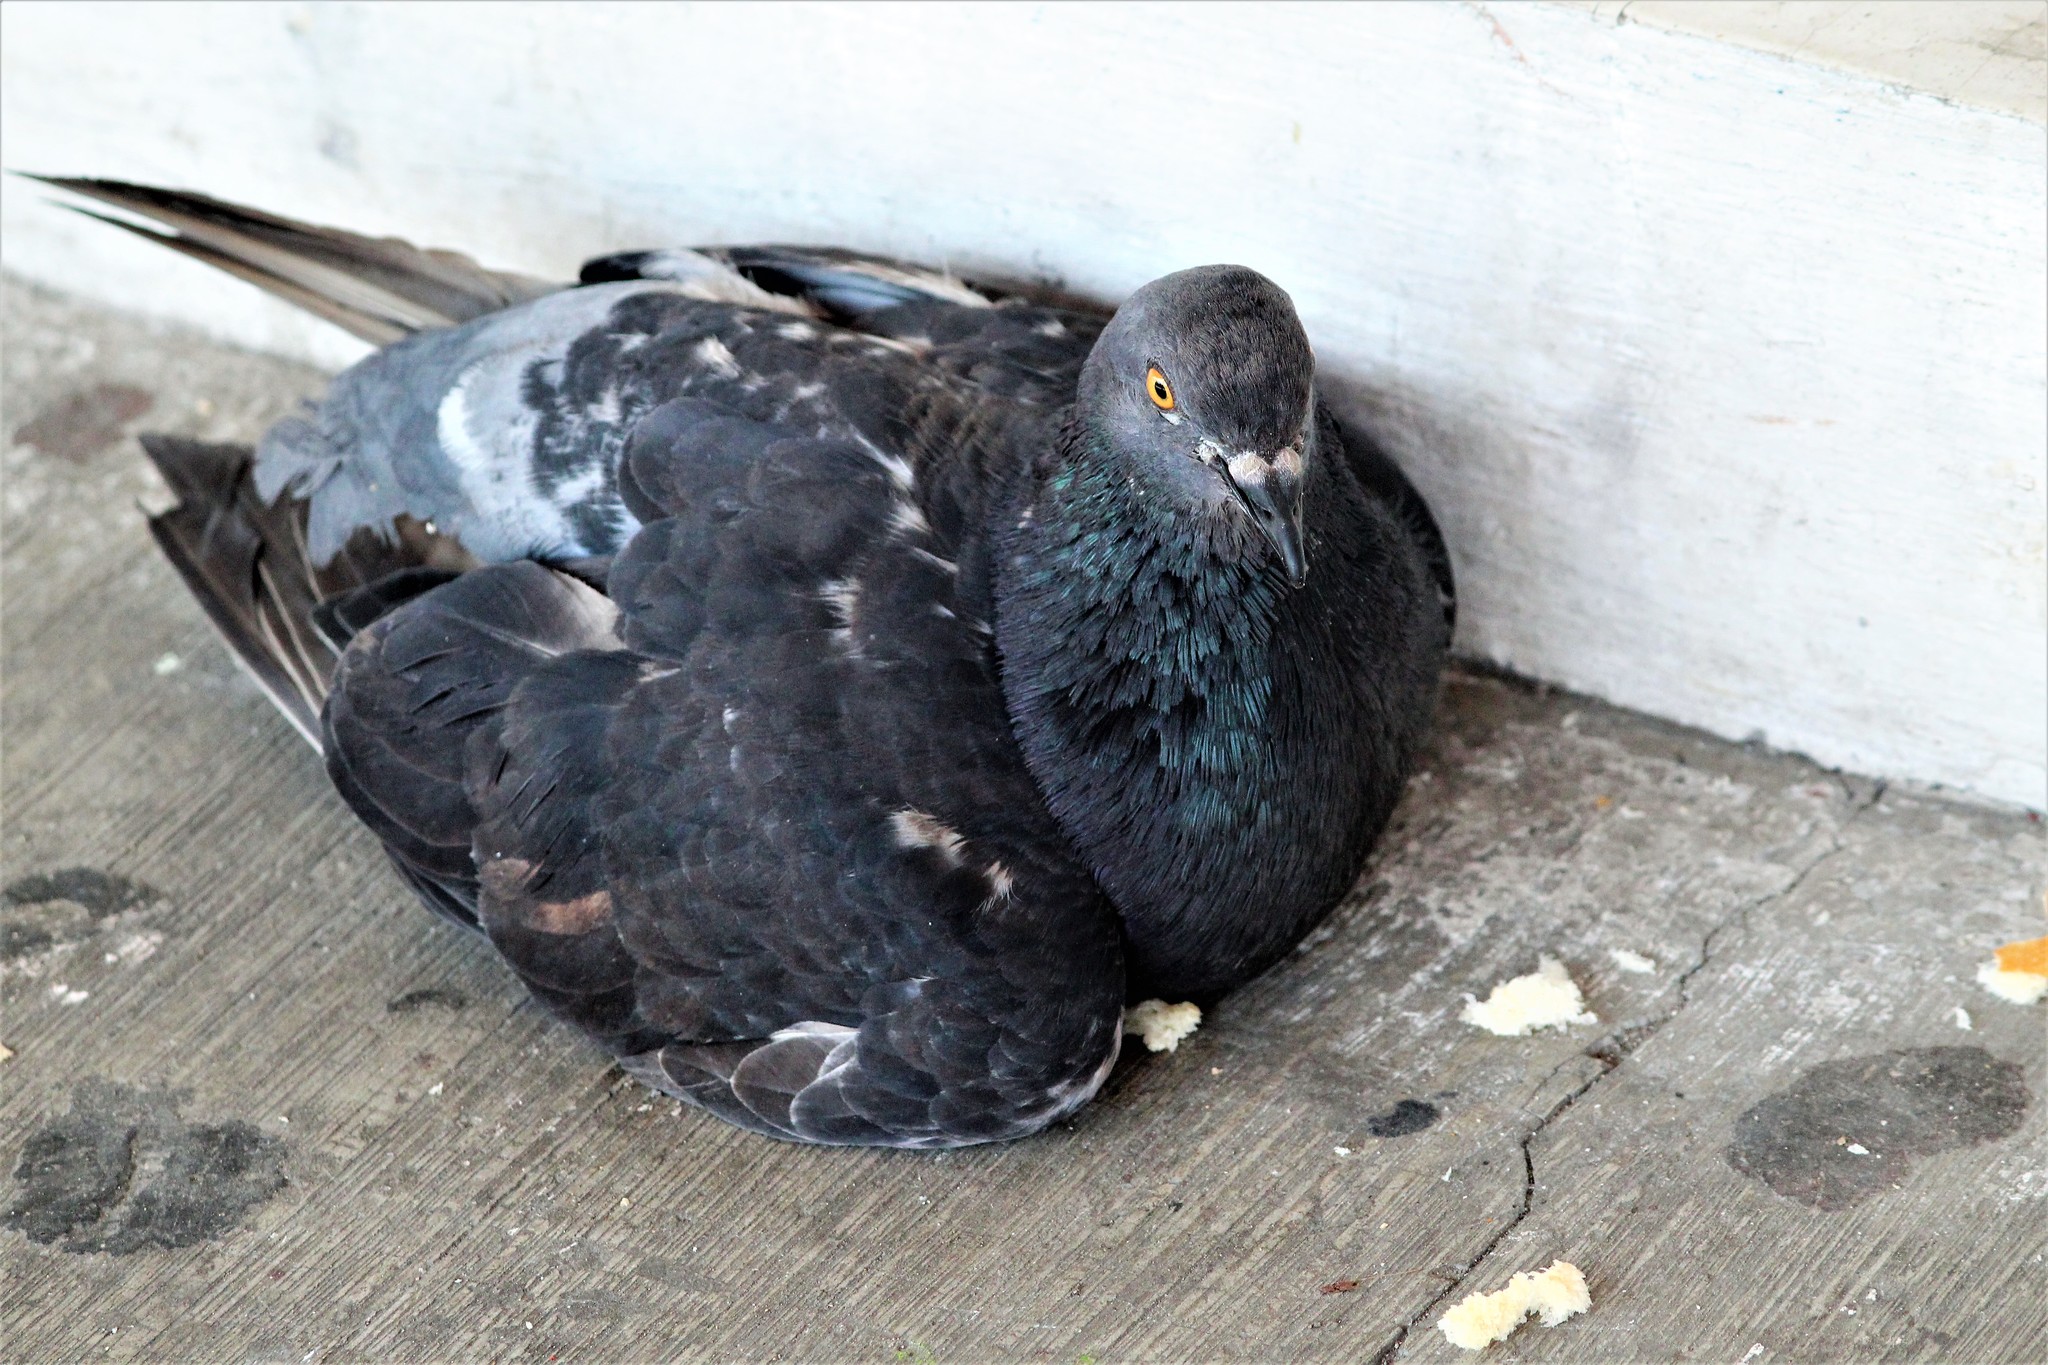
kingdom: Animalia
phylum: Chordata
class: Aves
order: Columbiformes
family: Columbidae
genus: Columba
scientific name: Columba livia
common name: Rock pigeon
